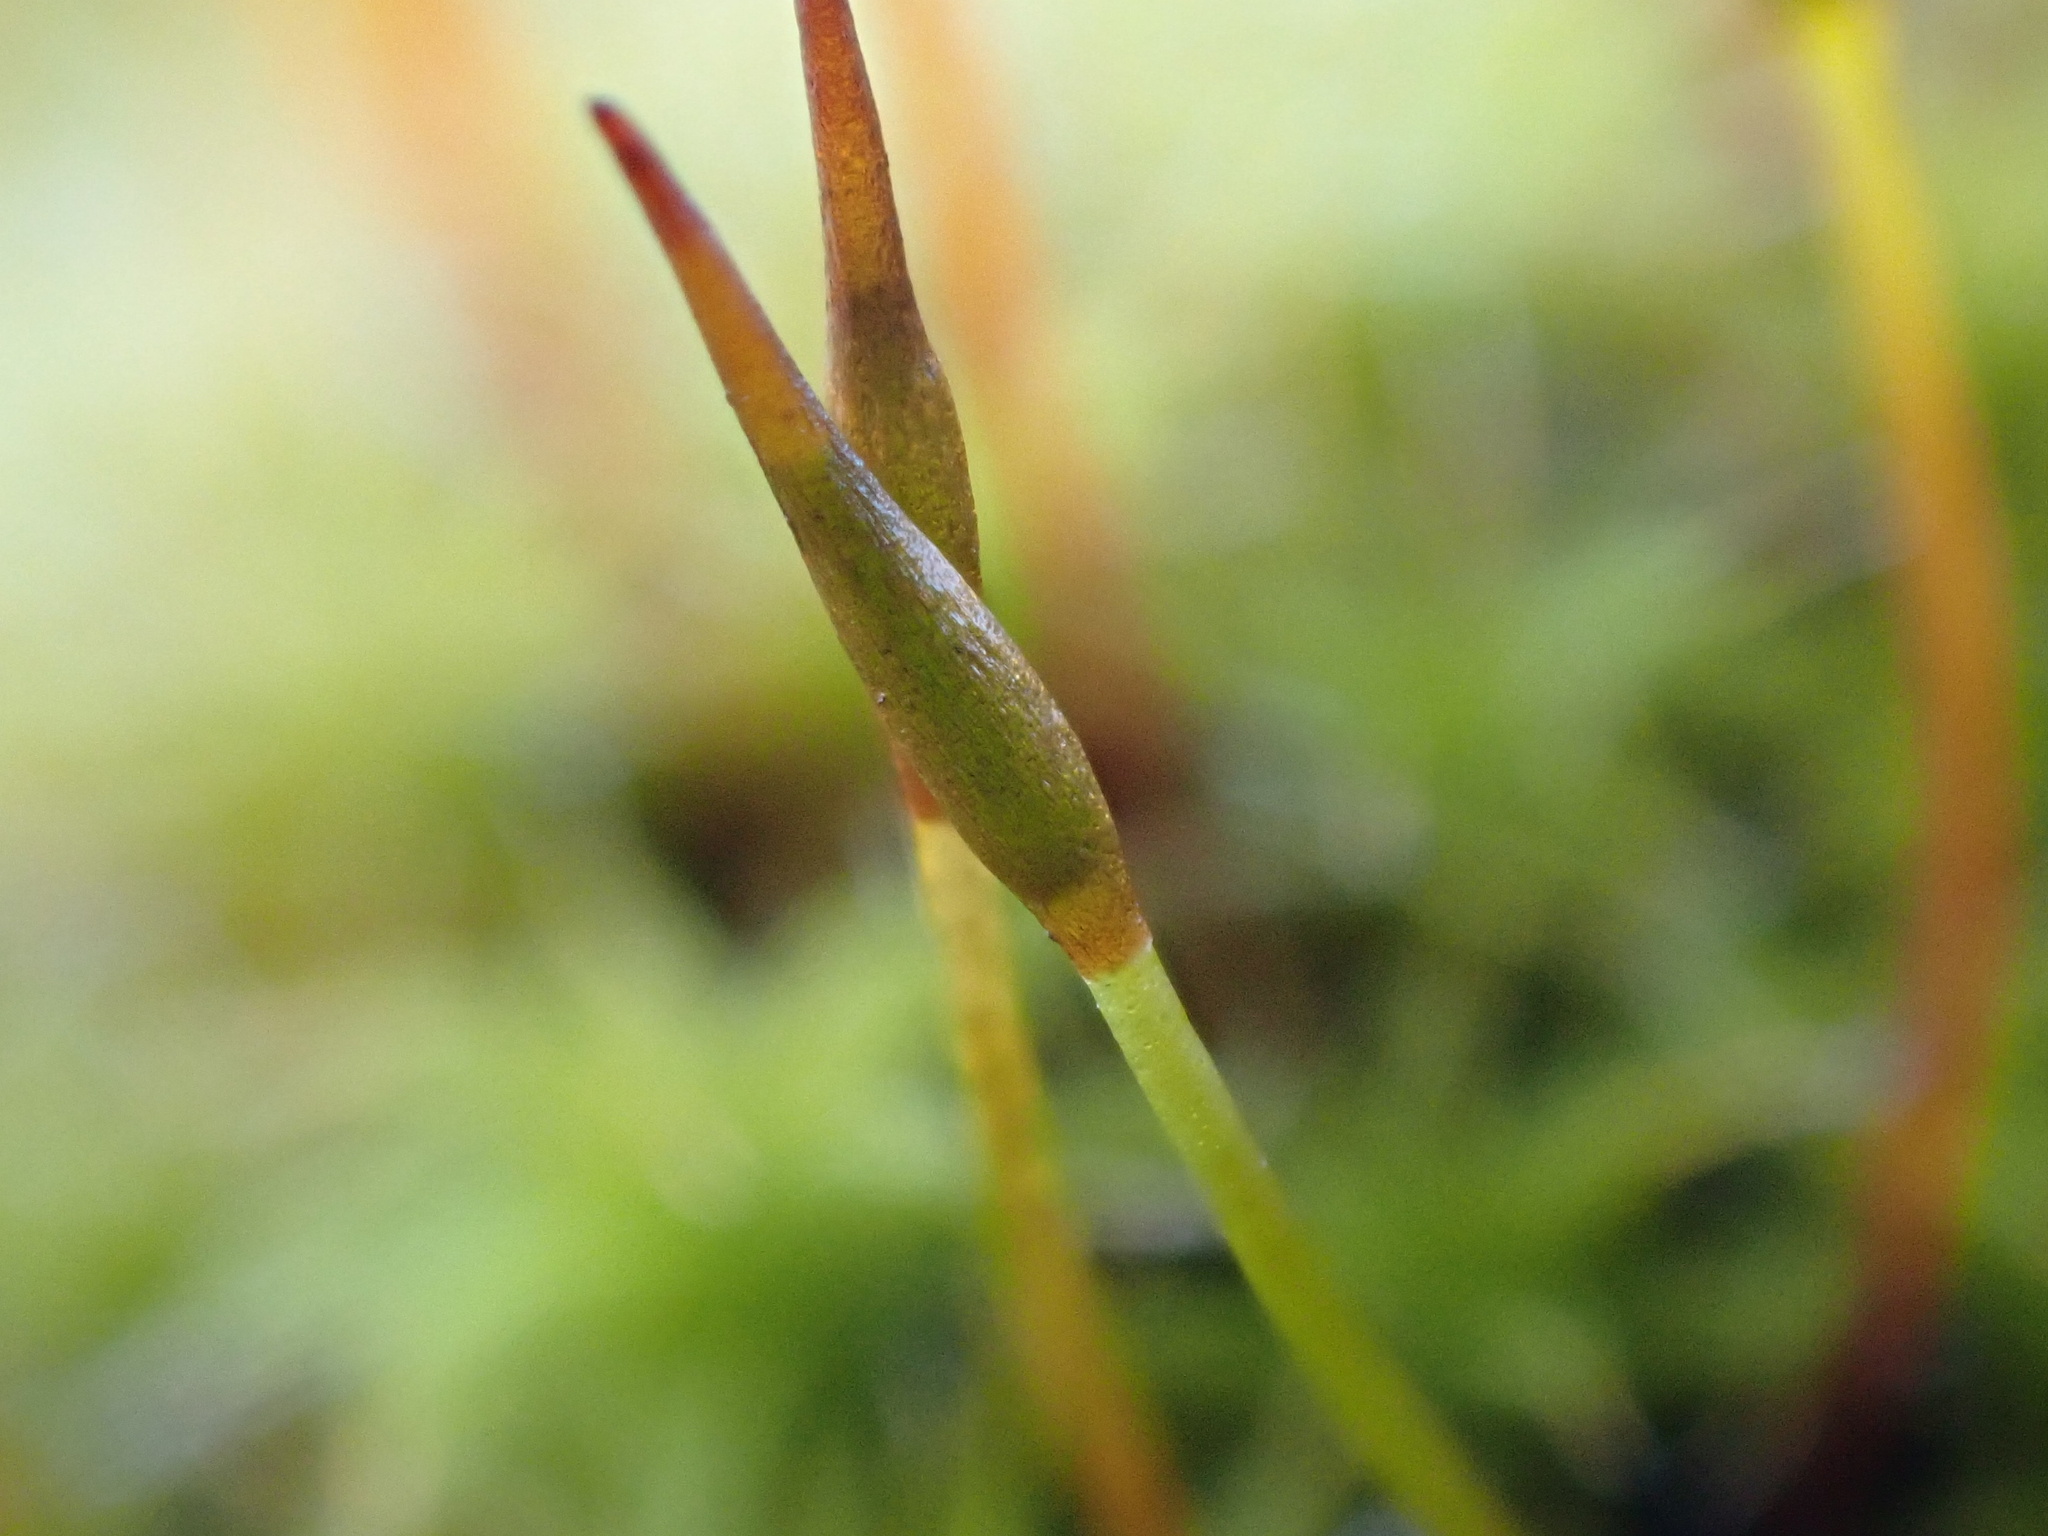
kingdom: Plantae
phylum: Bryophyta
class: Bryopsida
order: Pottiales
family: Pottiaceae
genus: Syntrichia
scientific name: Syntrichia ruralis
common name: Sidewalk screw moss
